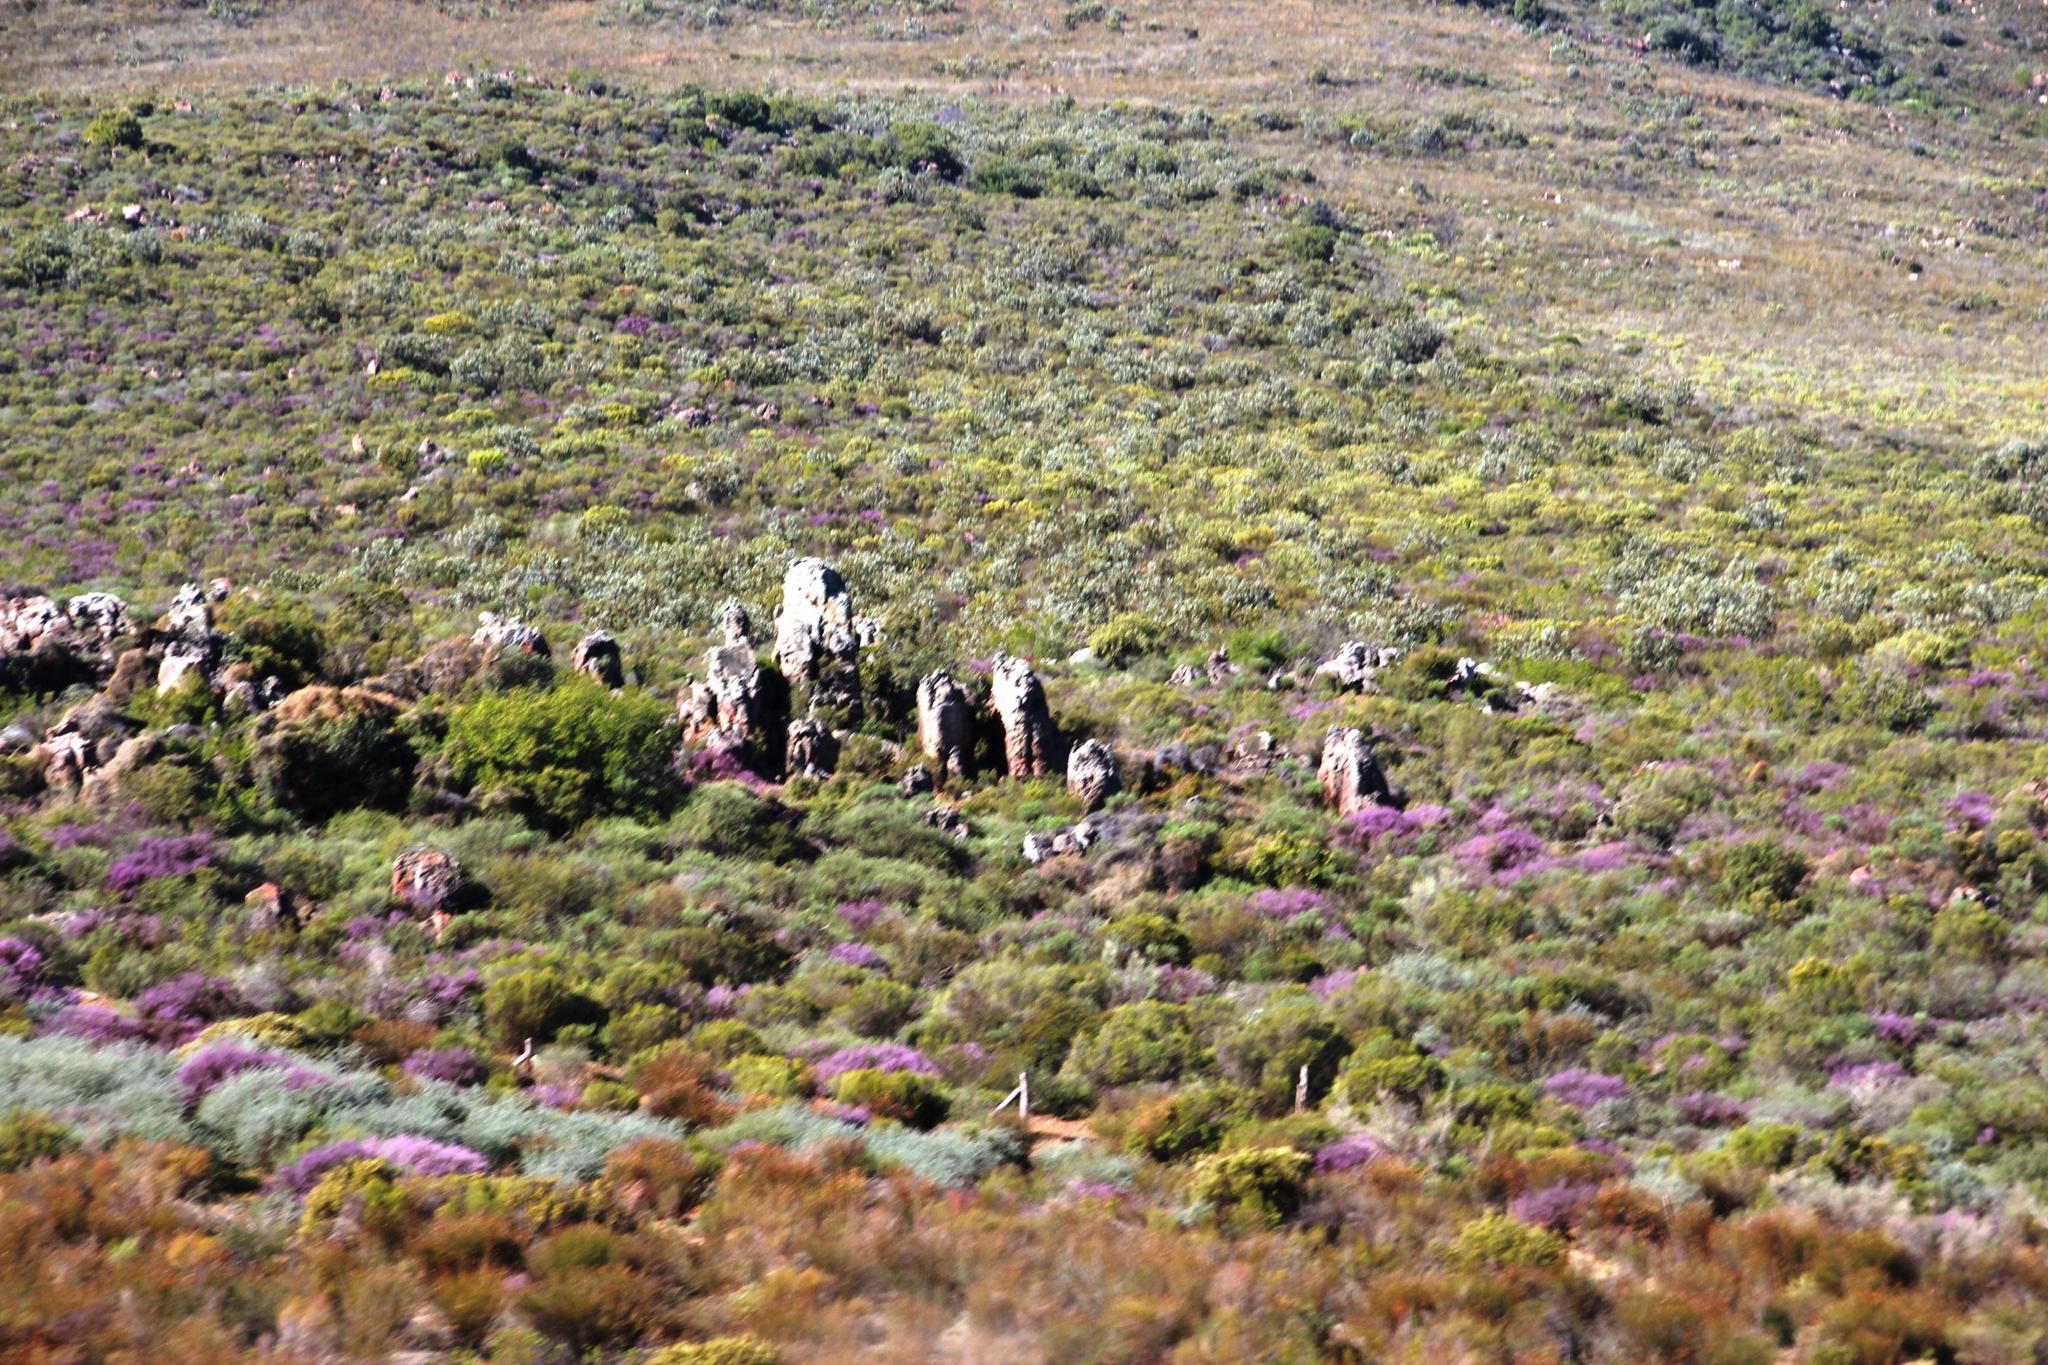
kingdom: Plantae
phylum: Tracheophyta
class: Magnoliopsida
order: Fabales
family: Polygalaceae
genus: Muraltia
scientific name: Muraltia spinosa
